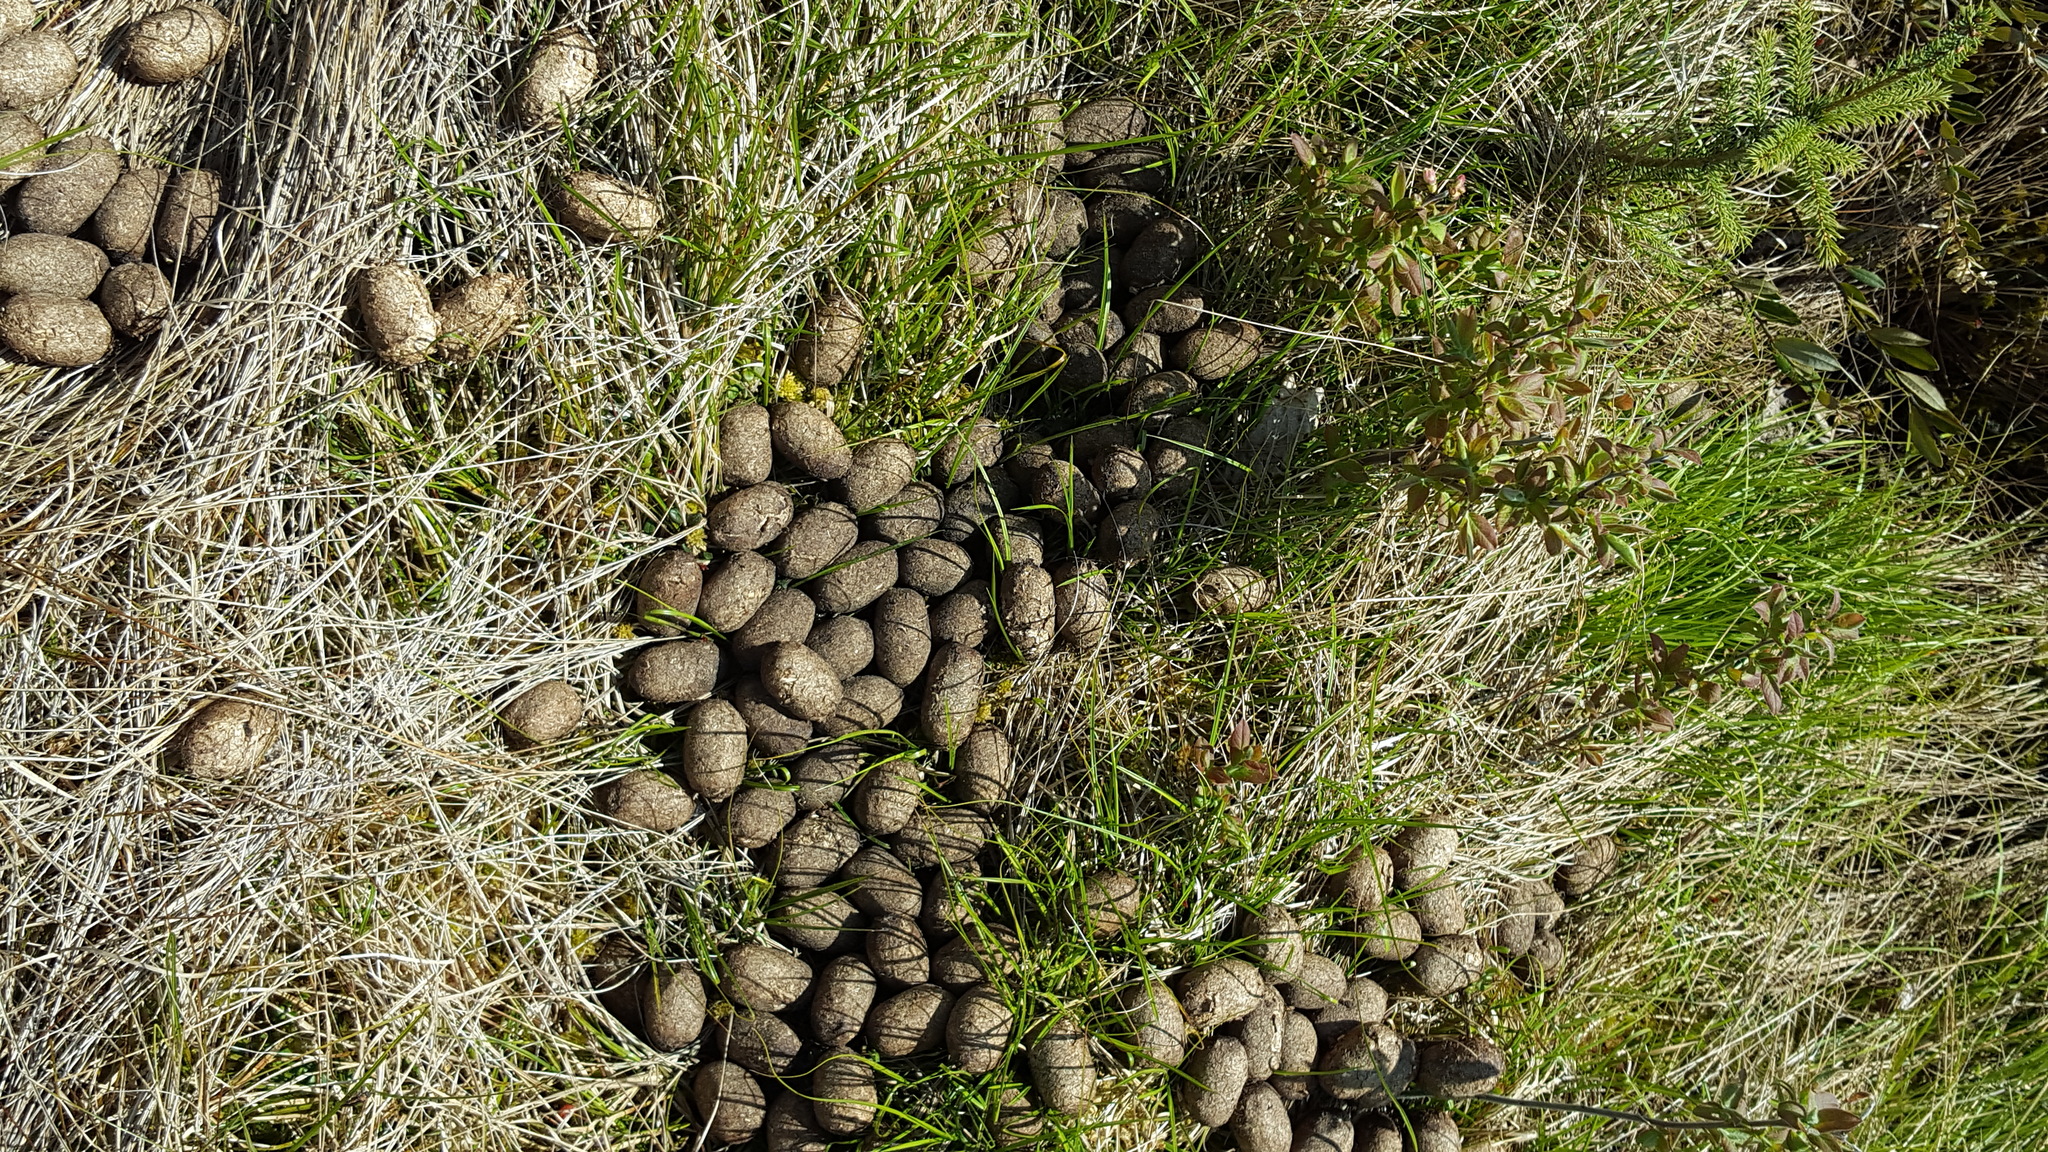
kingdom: Animalia
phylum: Chordata
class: Mammalia
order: Artiodactyla
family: Cervidae
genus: Alces
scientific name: Alces alces
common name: Moose
